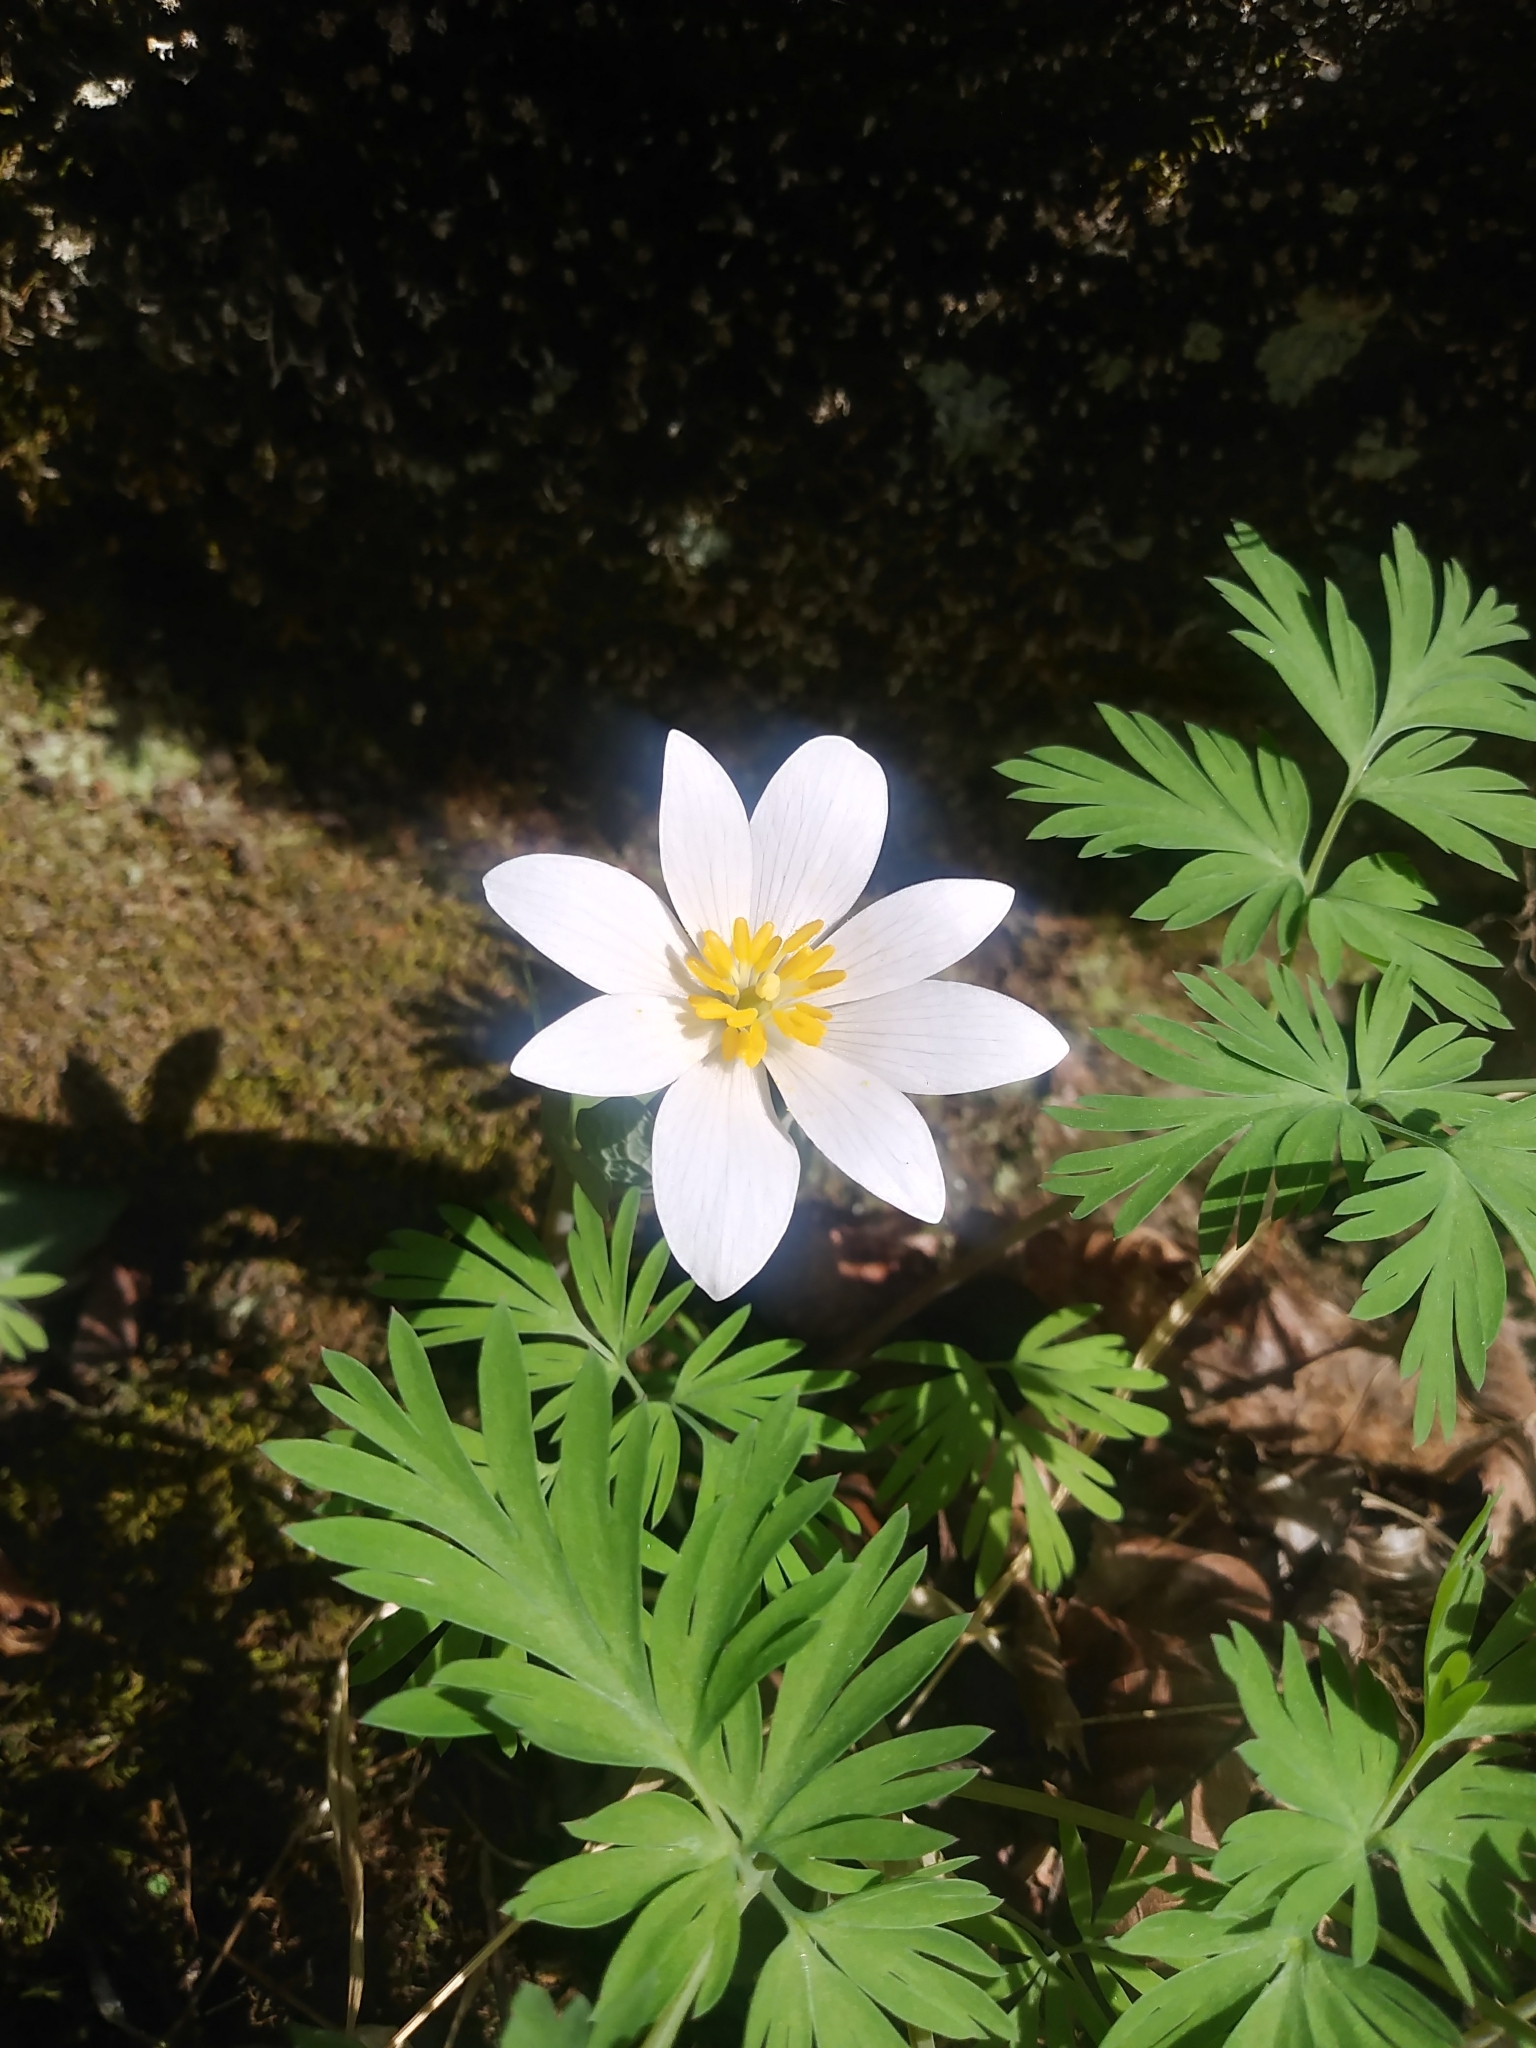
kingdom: Plantae
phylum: Tracheophyta
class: Magnoliopsida
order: Ranunculales
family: Papaveraceae
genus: Sanguinaria
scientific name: Sanguinaria canadensis
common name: Bloodroot
